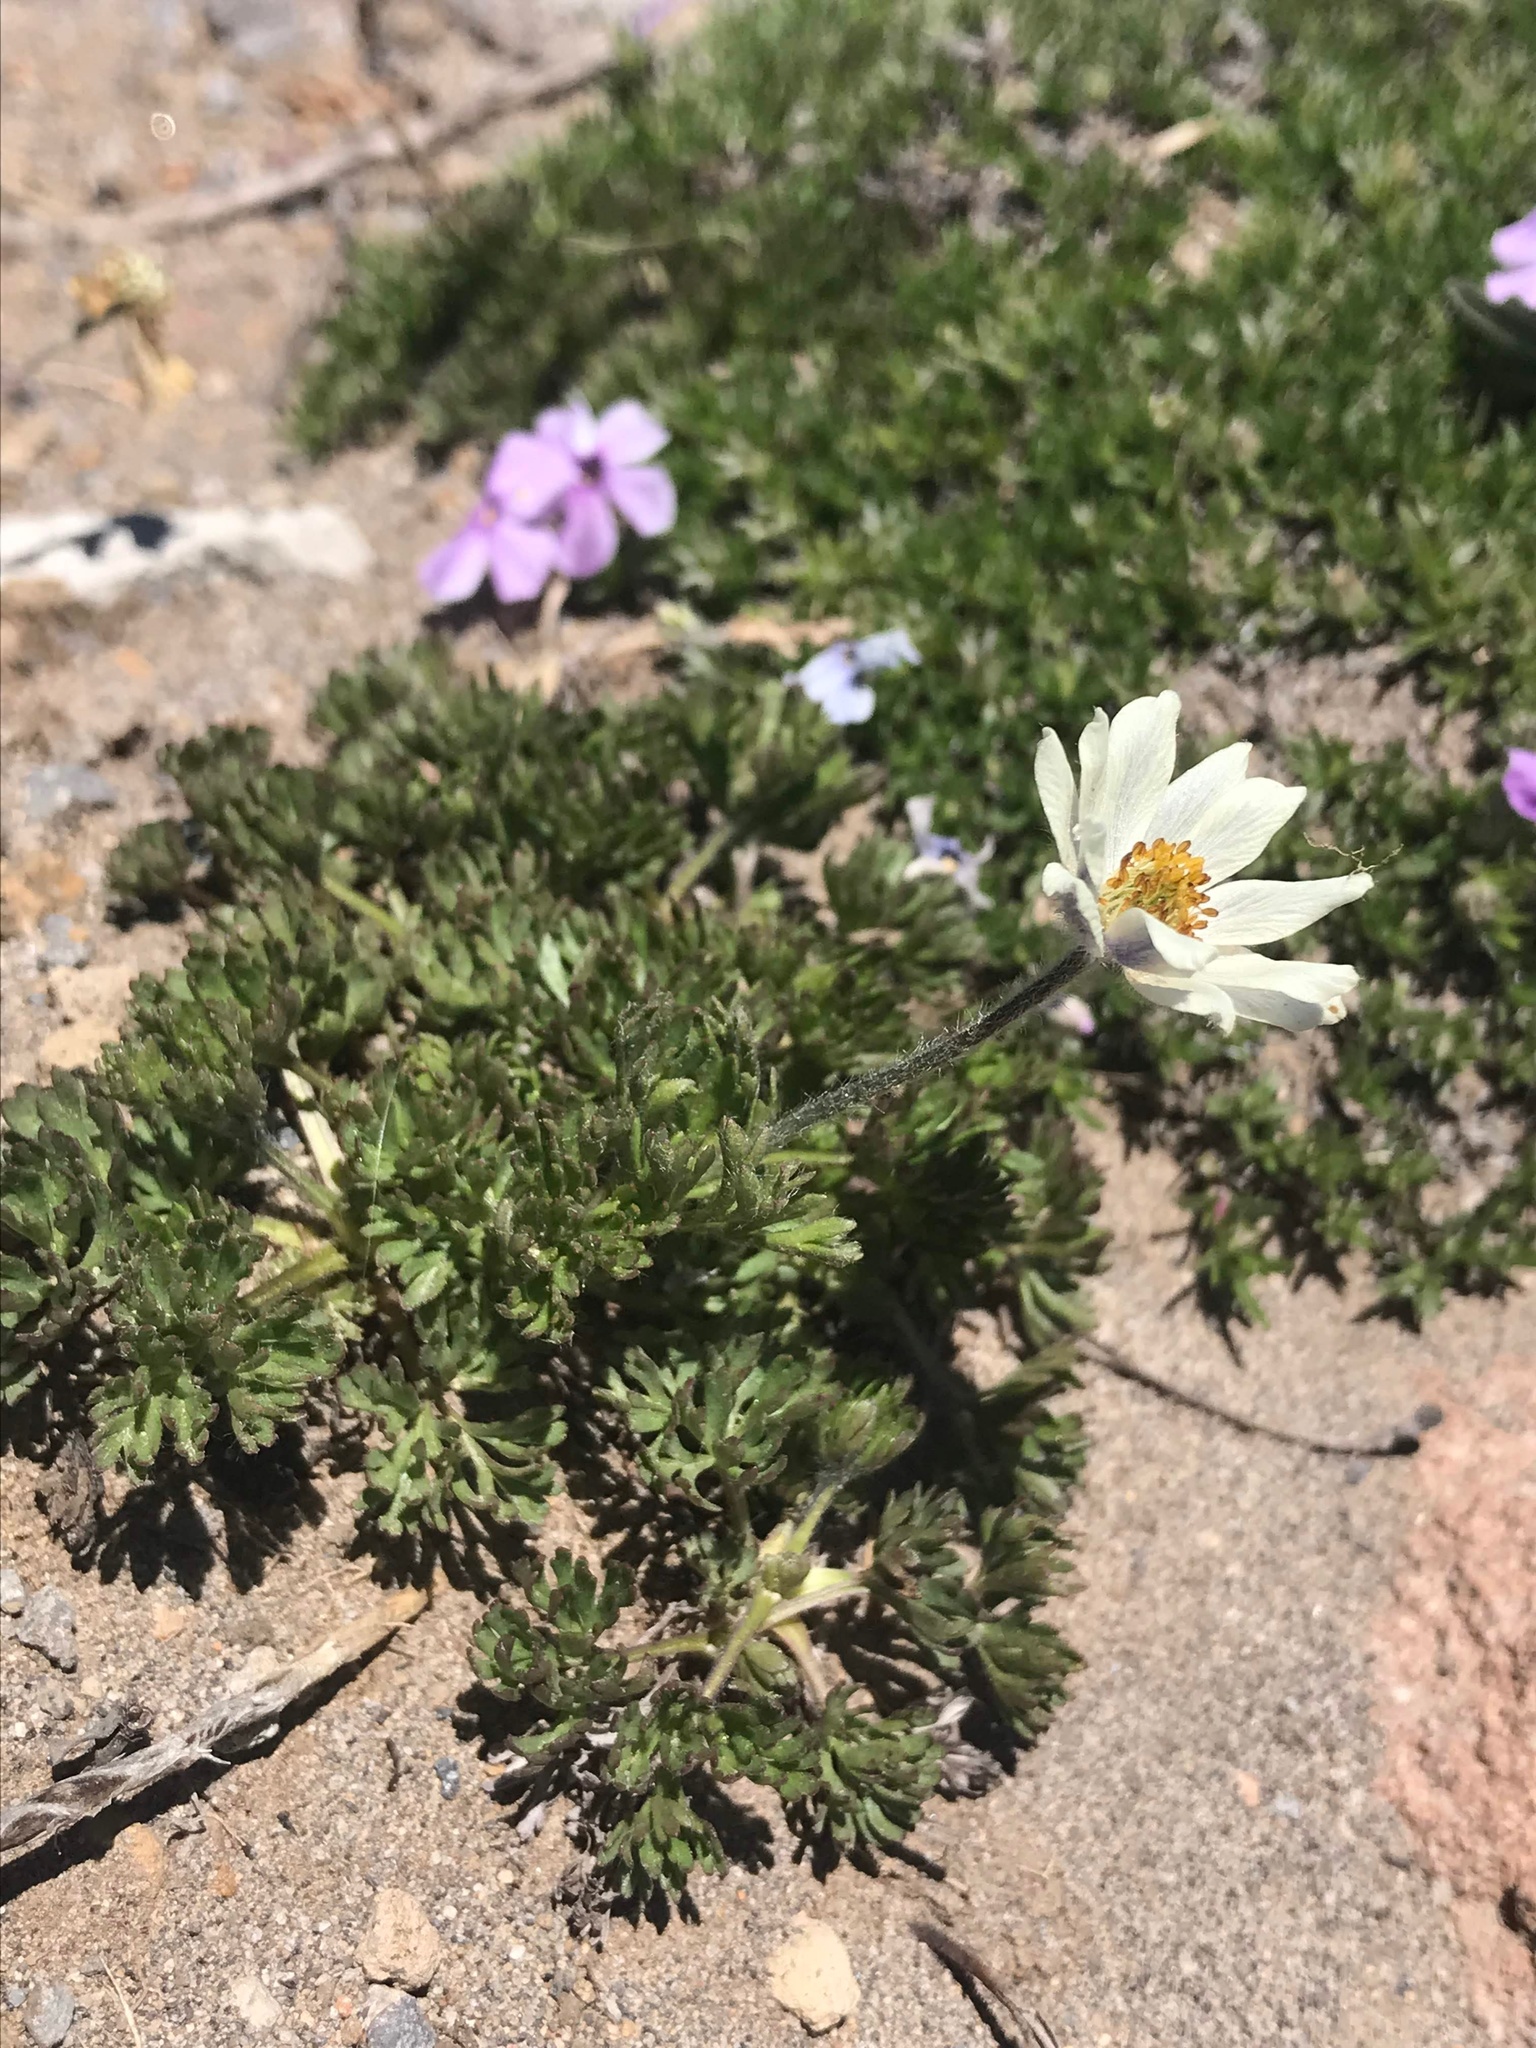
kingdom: Plantae
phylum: Tracheophyta
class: Magnoliopsida
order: Ranunculales
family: Ranunculaceae
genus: Anemone
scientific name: Anemone drummondii
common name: Drummond's anemone
